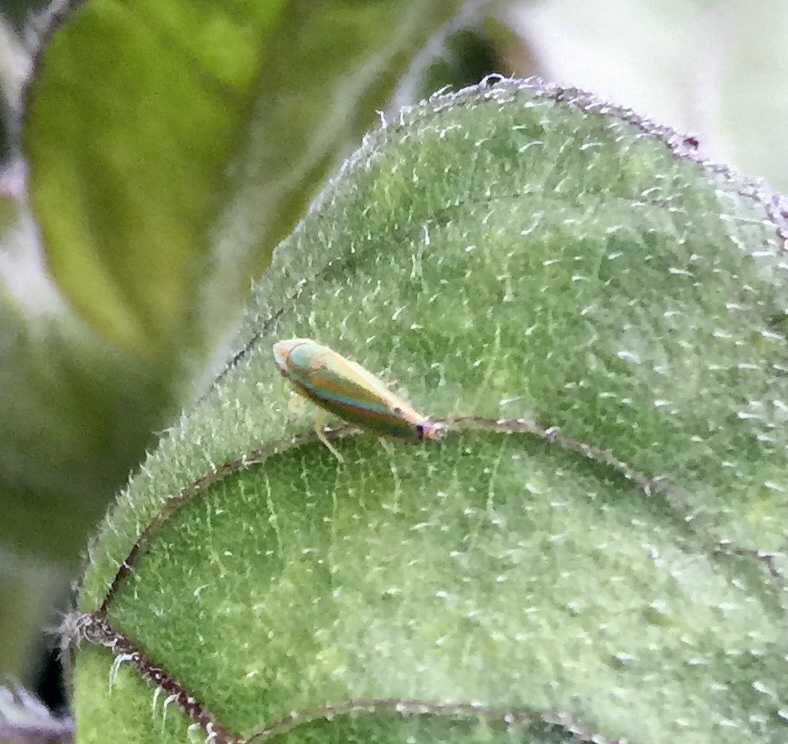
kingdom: Animalia
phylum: Arthropoda
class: Insecta
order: Hemiptera
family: Cicadellidae
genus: Graphocephala
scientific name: Graphocephala versuta
